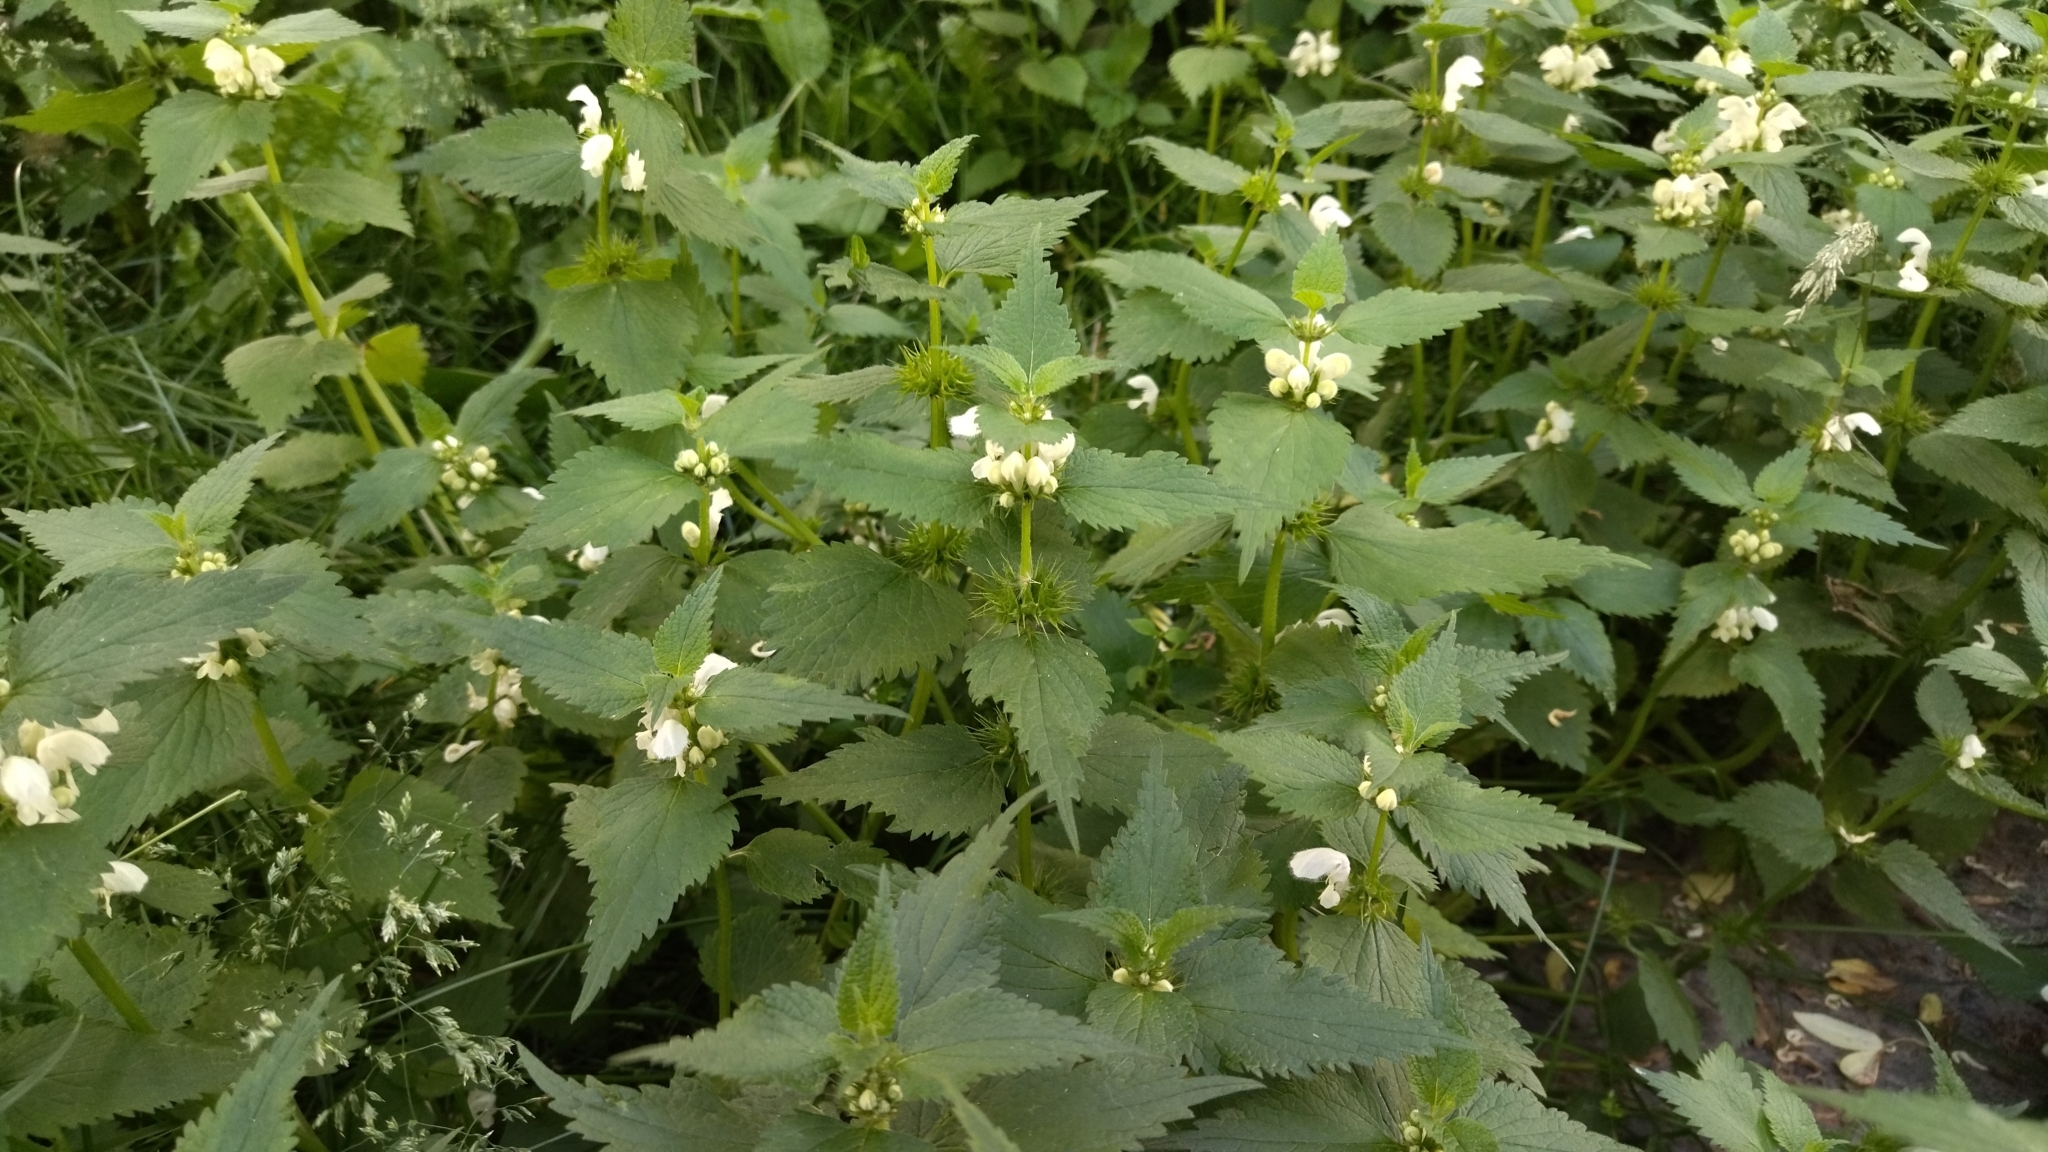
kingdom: Plantae
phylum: Tracheophyta
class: Magnoliopsida
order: Lamiales
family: Lamiaceae
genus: Lamium
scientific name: Lamium album
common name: White dead-nettle
